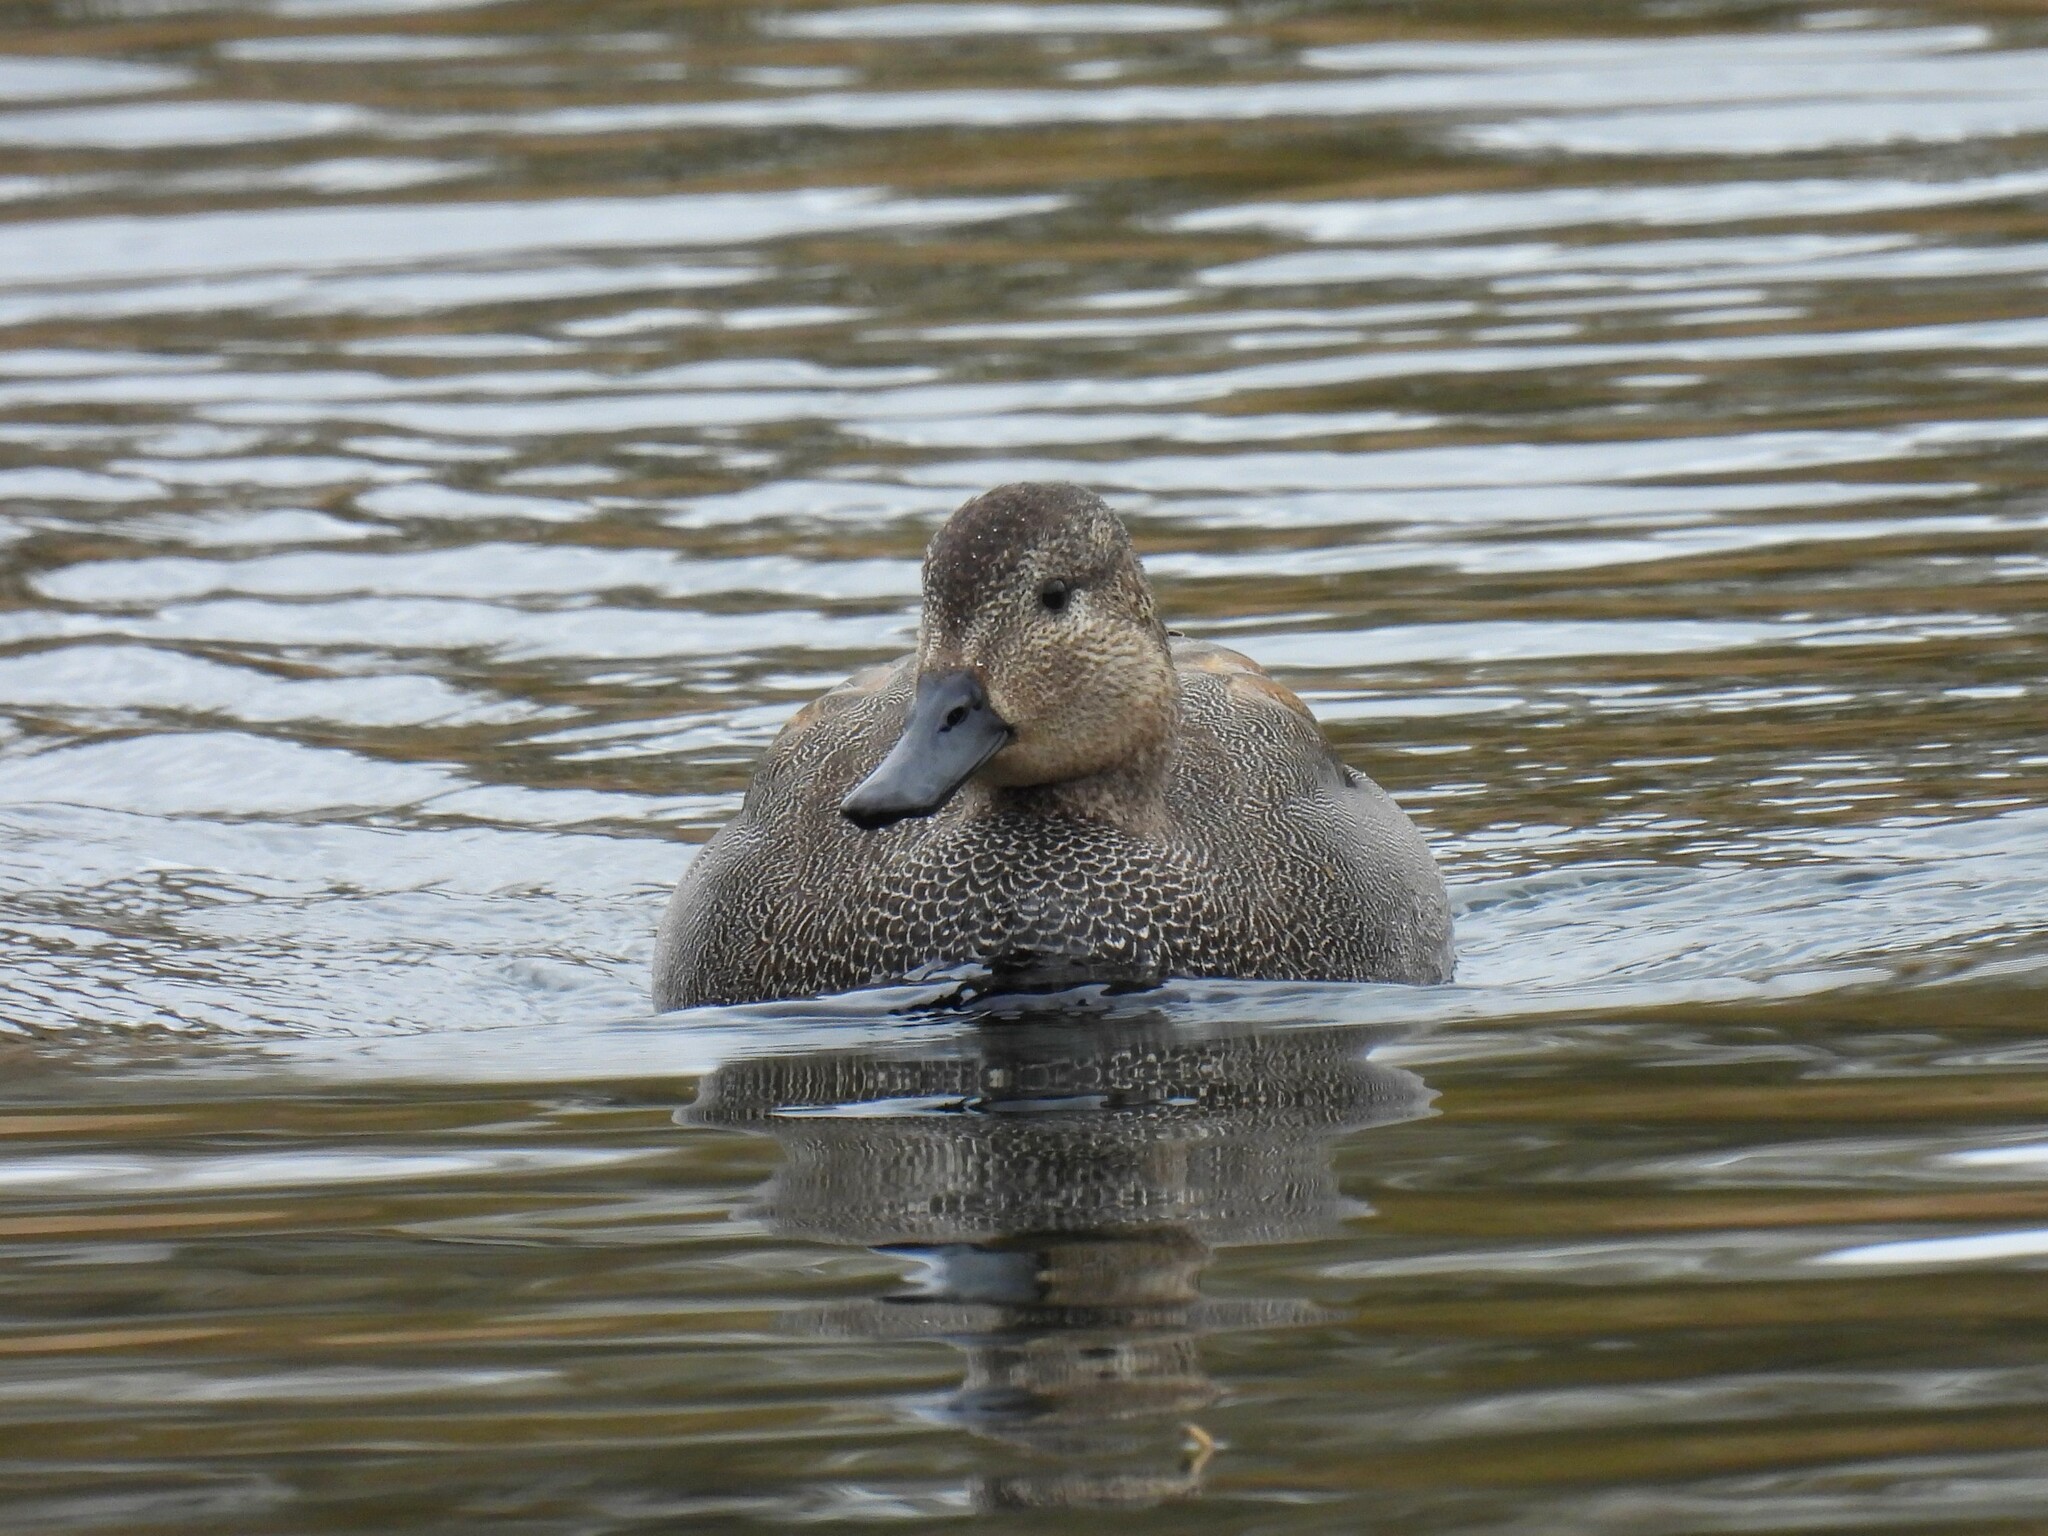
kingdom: Animalia
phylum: Chordata
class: Aves
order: Anseriformes
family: Anatidae
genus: Mareca
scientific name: Mareca strepera
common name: Gadwall
